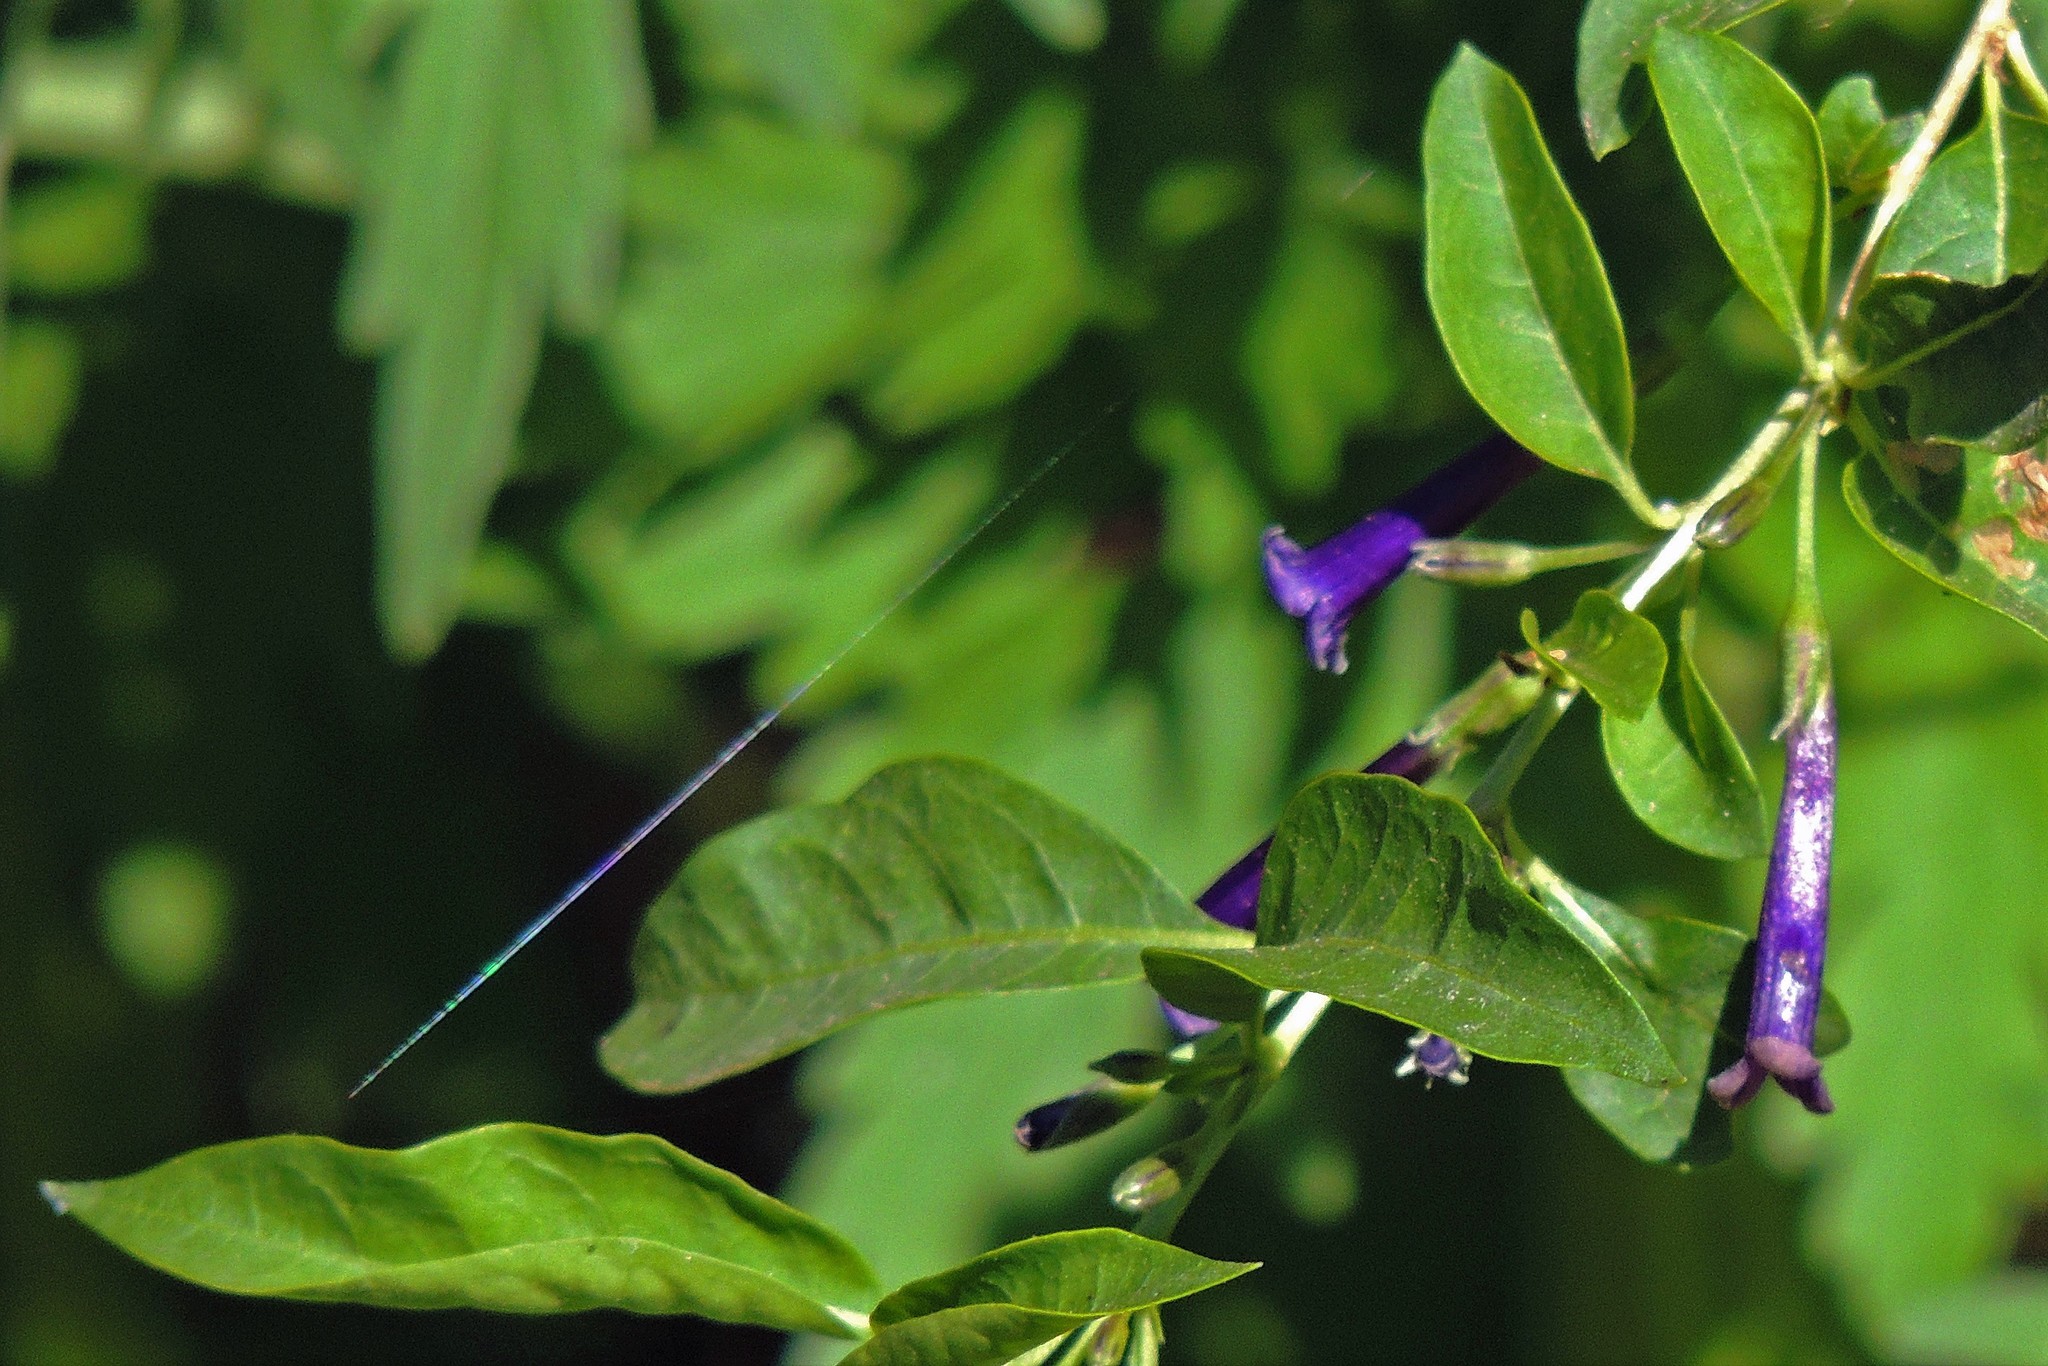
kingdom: Plantae
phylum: Tracheophyta
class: Magnoliopsida
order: Solanales
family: Solanaceae
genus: Dunalia
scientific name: Dunalia brachyacantha
